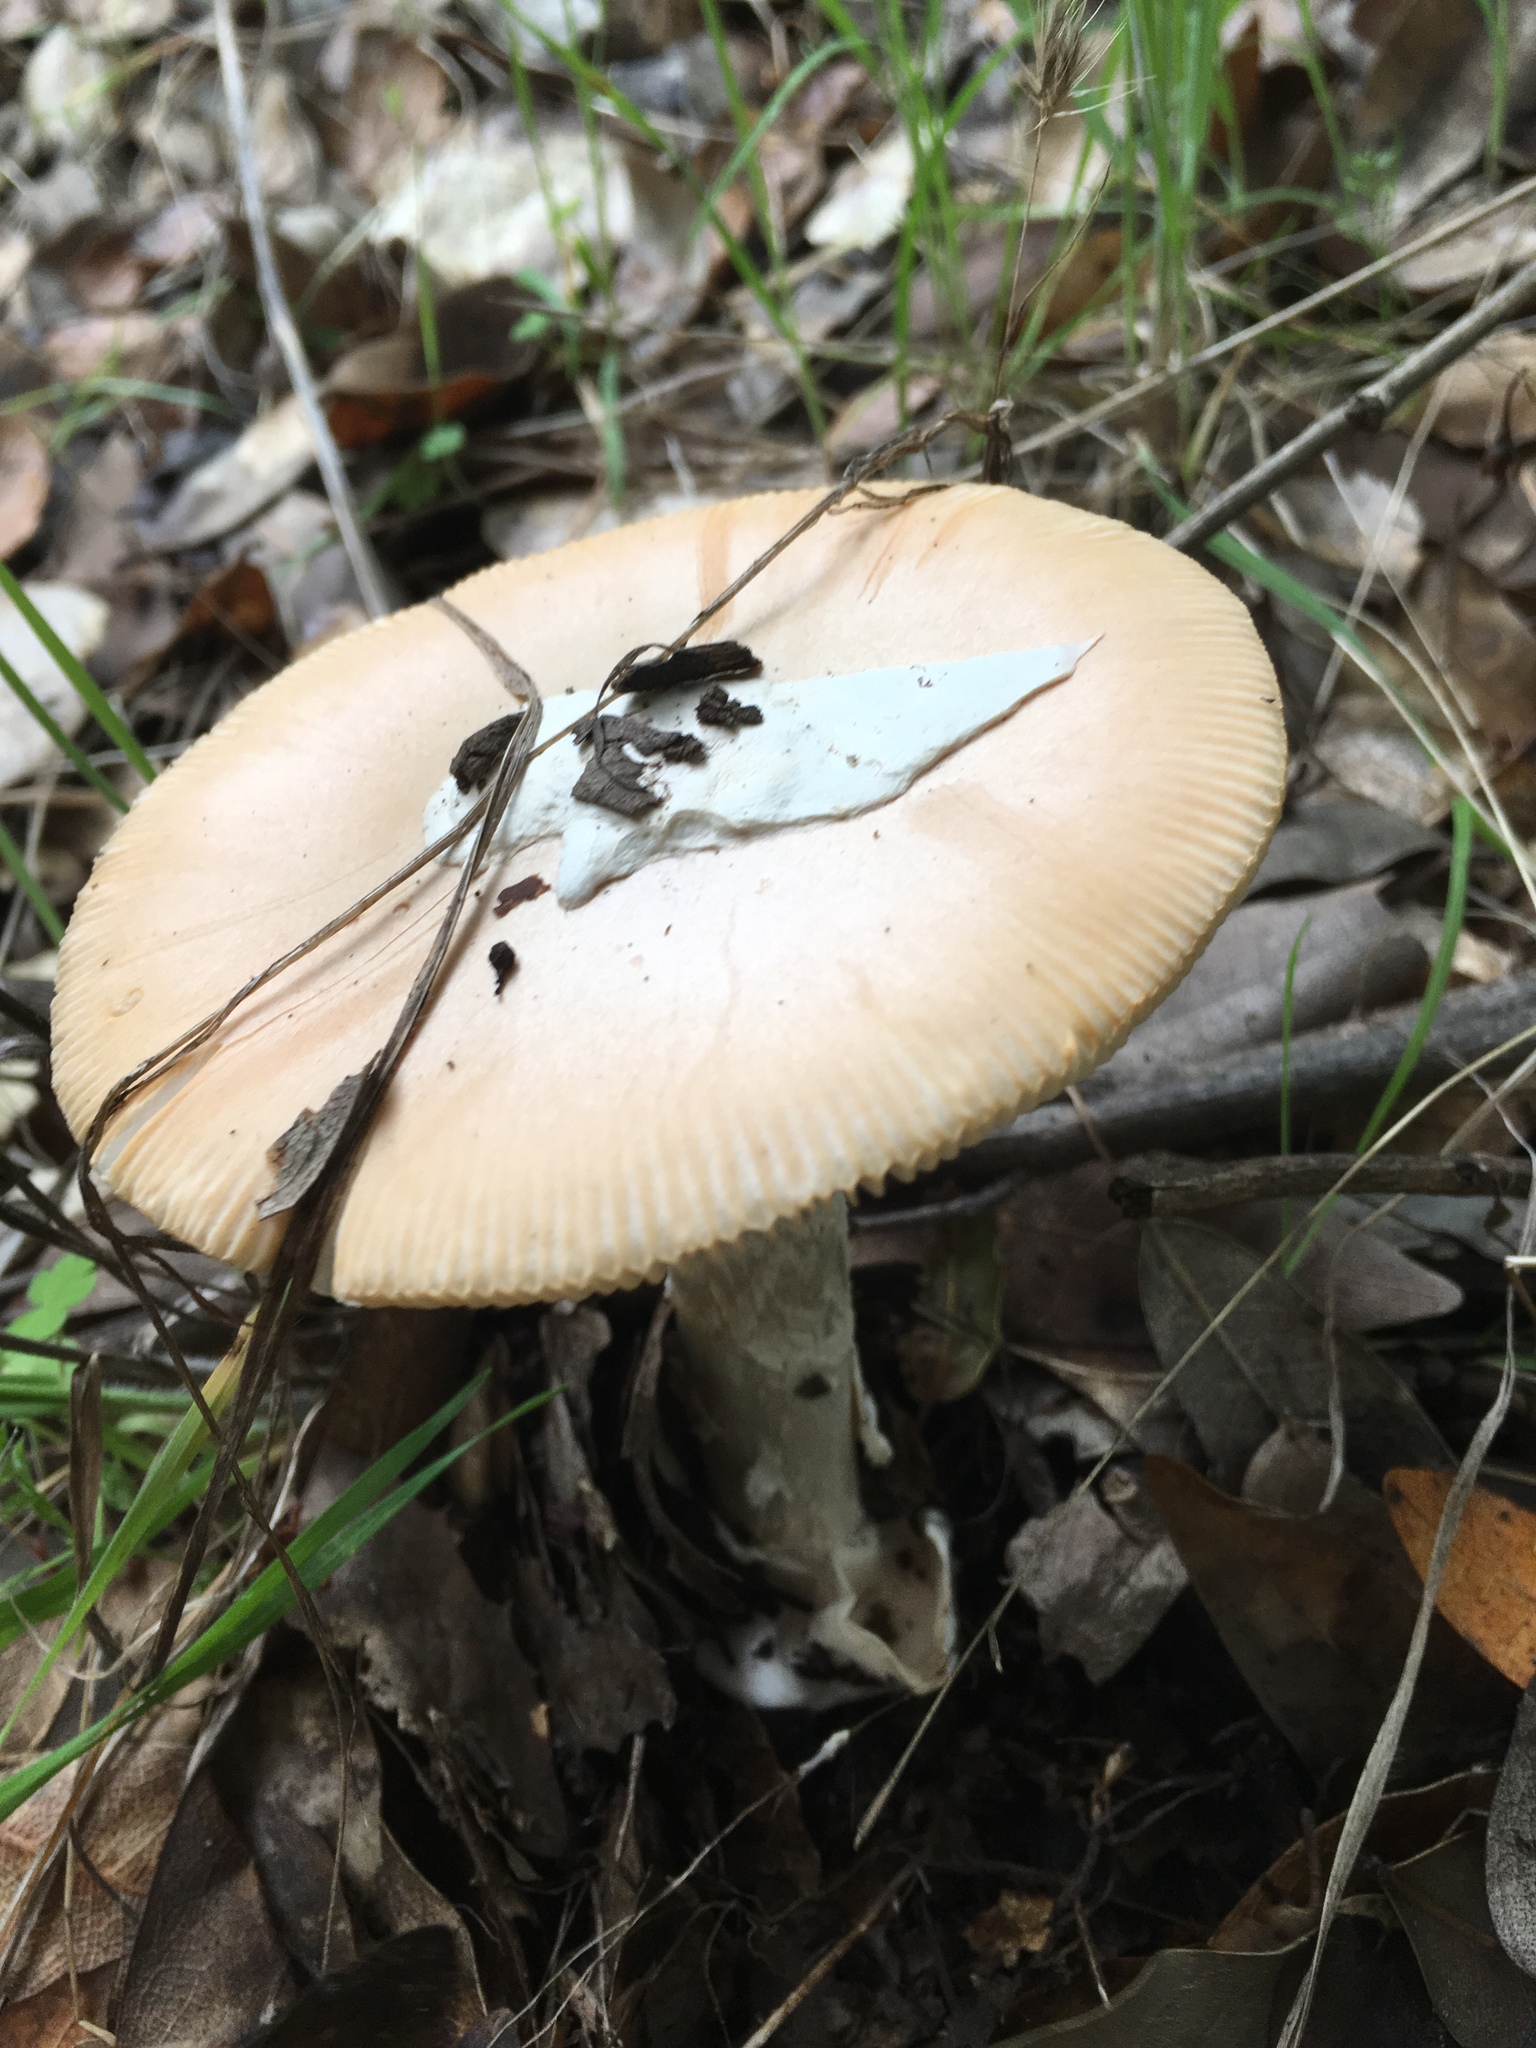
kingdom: Fungi
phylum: Basidiomycota
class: Agaricomycetes
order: Agaricales
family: Amanitaceae
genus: Amanita
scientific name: Amanita velosa
